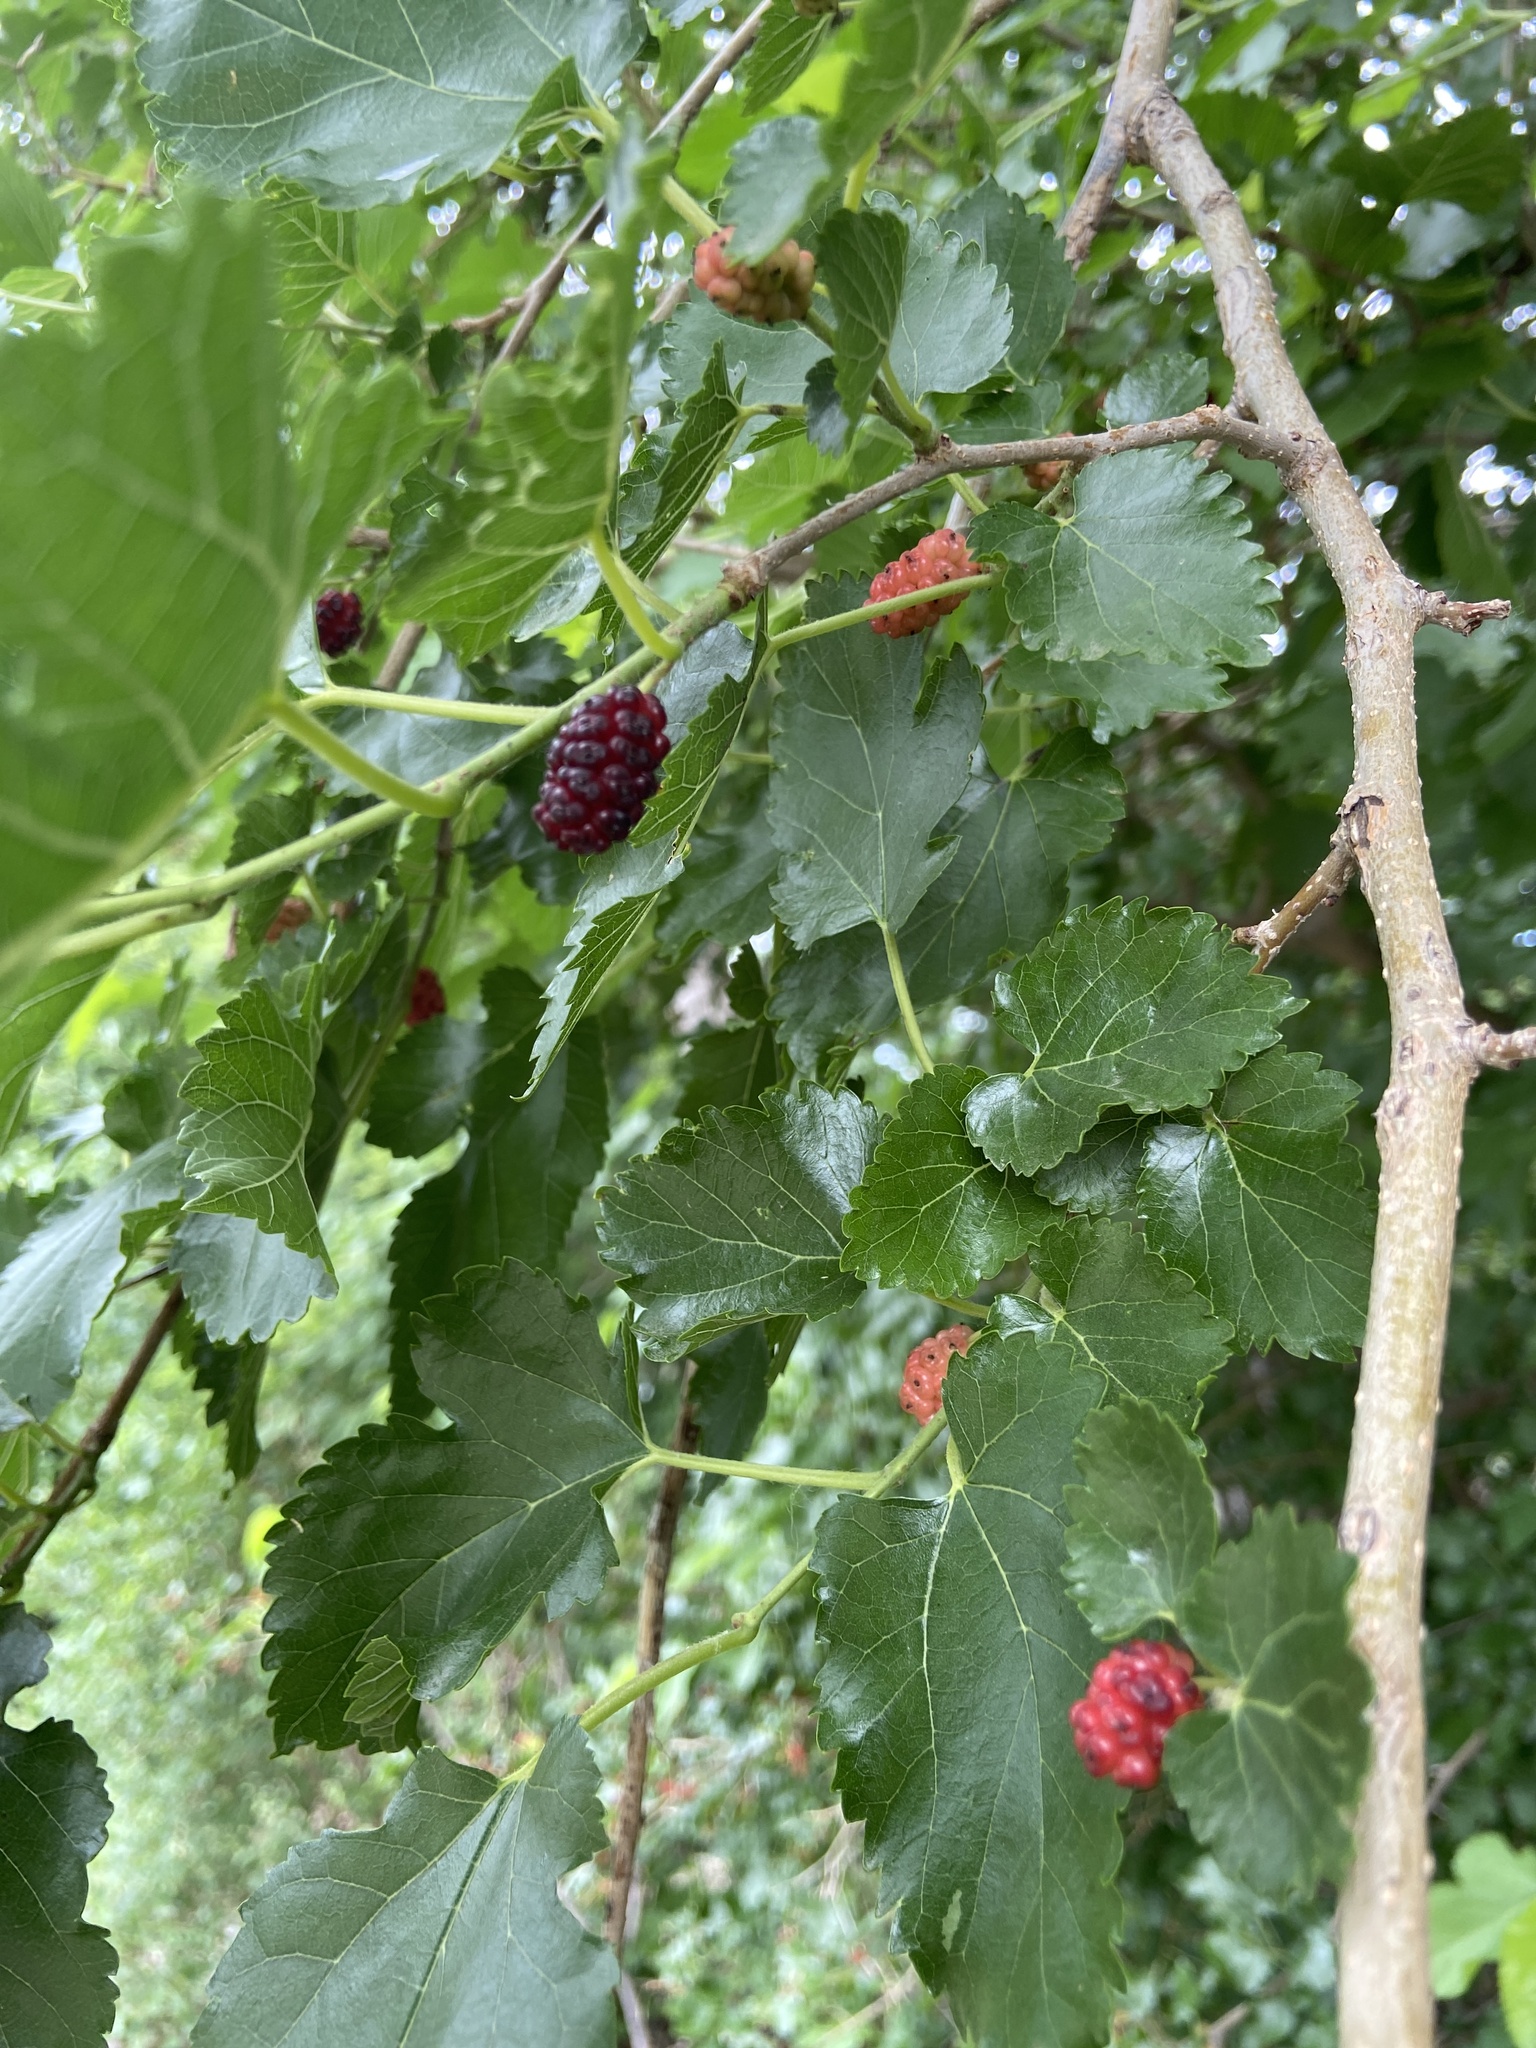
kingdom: Plantae
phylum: Tracheophyta
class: Magnoliopsida
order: Rosales
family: Moraceae
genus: Morus
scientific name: Morus alba
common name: White mulberry
